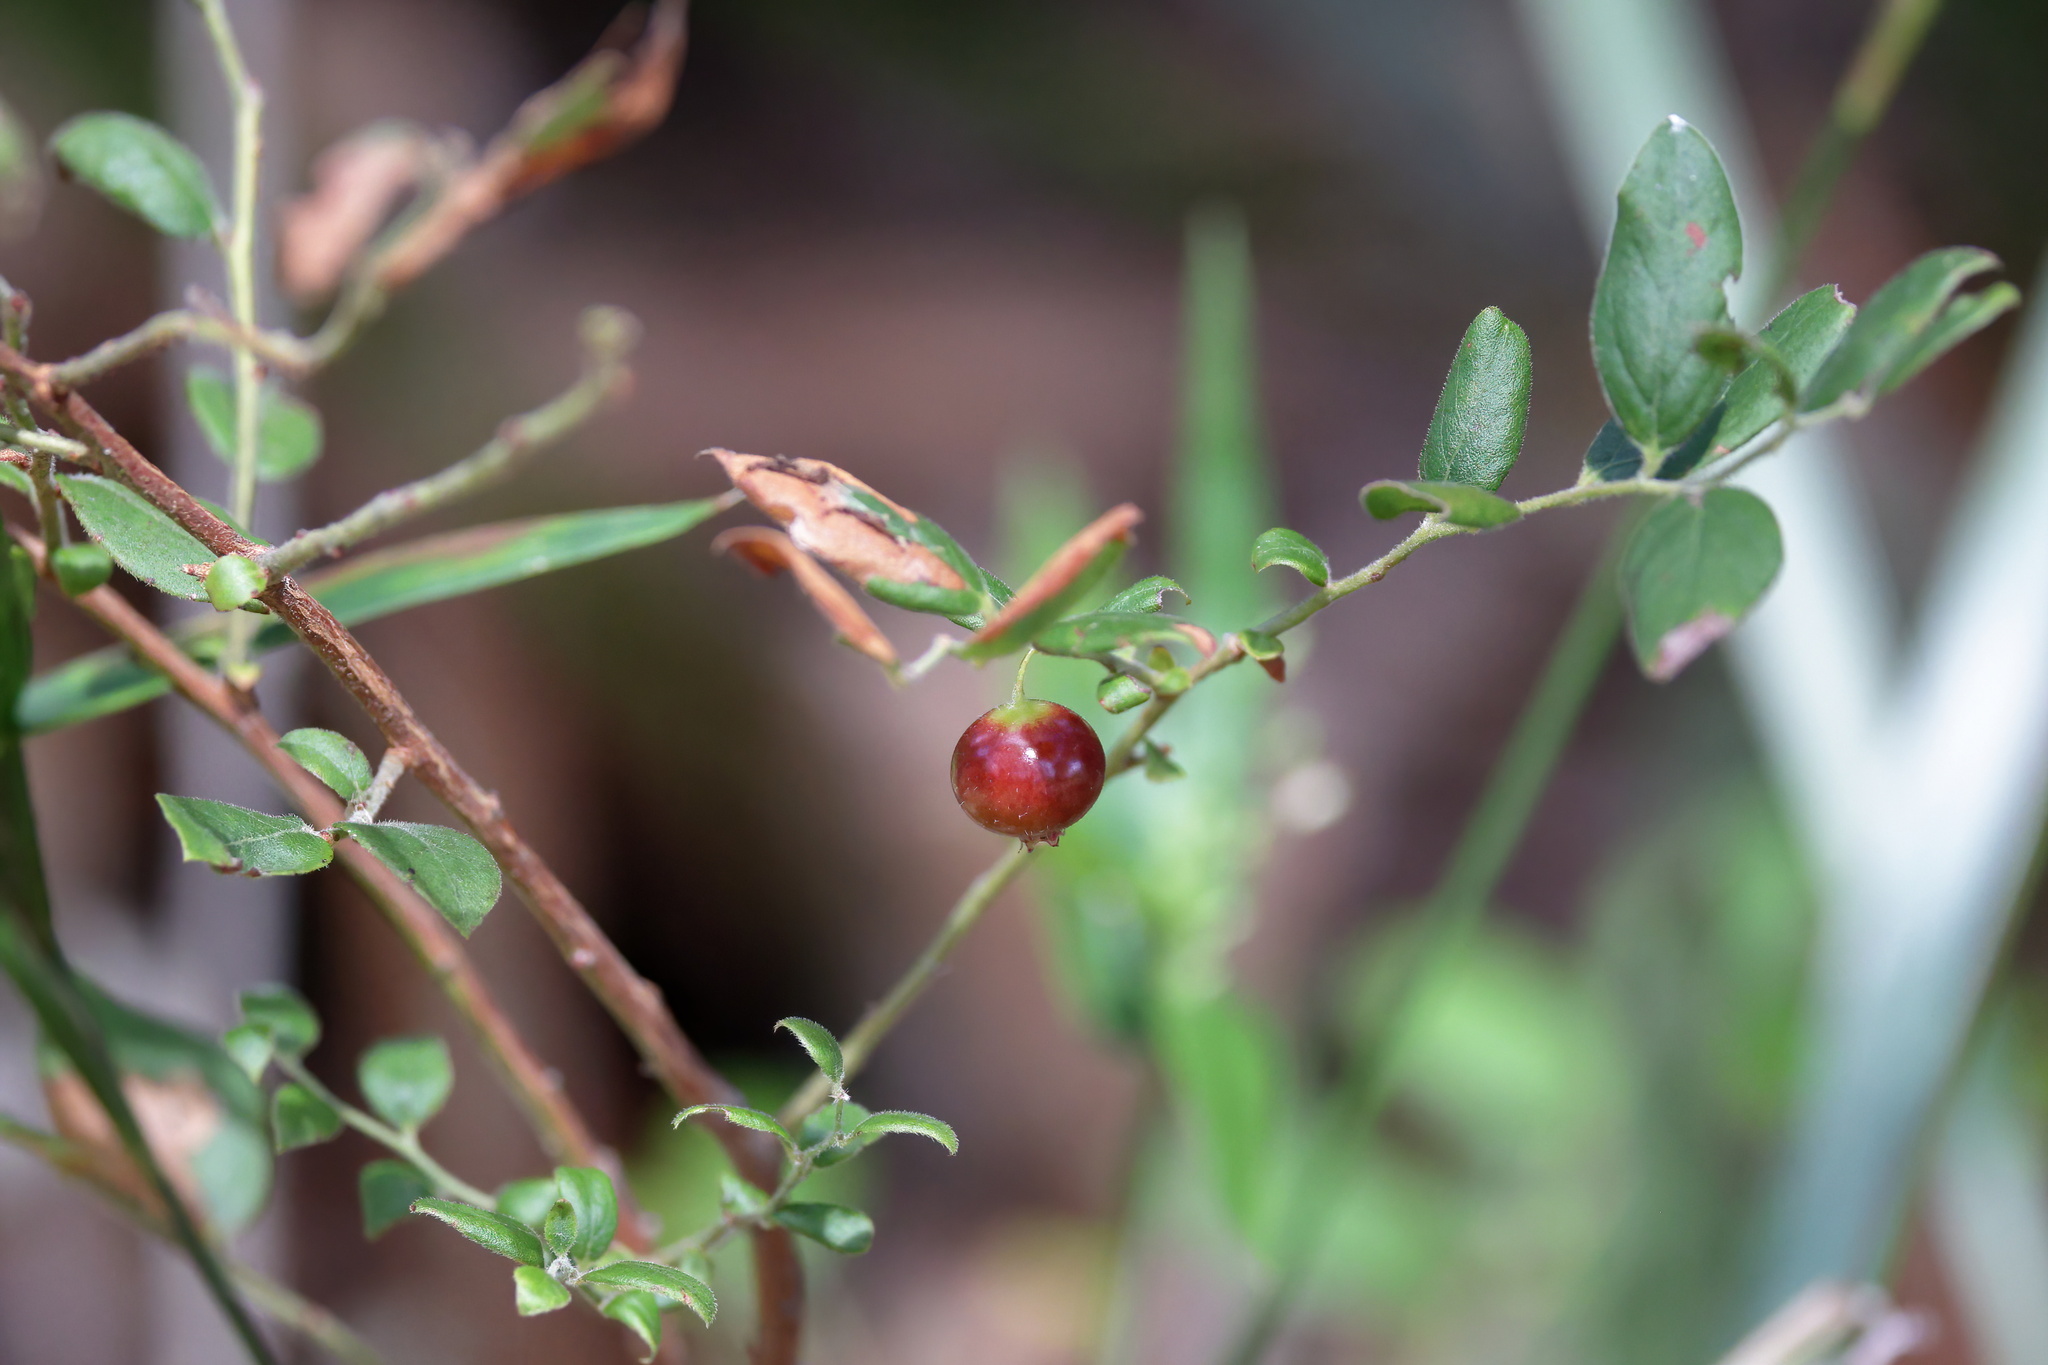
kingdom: Plantae
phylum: Tracheophyta
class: Magnoliopsida
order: Ericales
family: Ericaceae
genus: Vaccinium
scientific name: Vaccinium stamineum
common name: Deerberry
